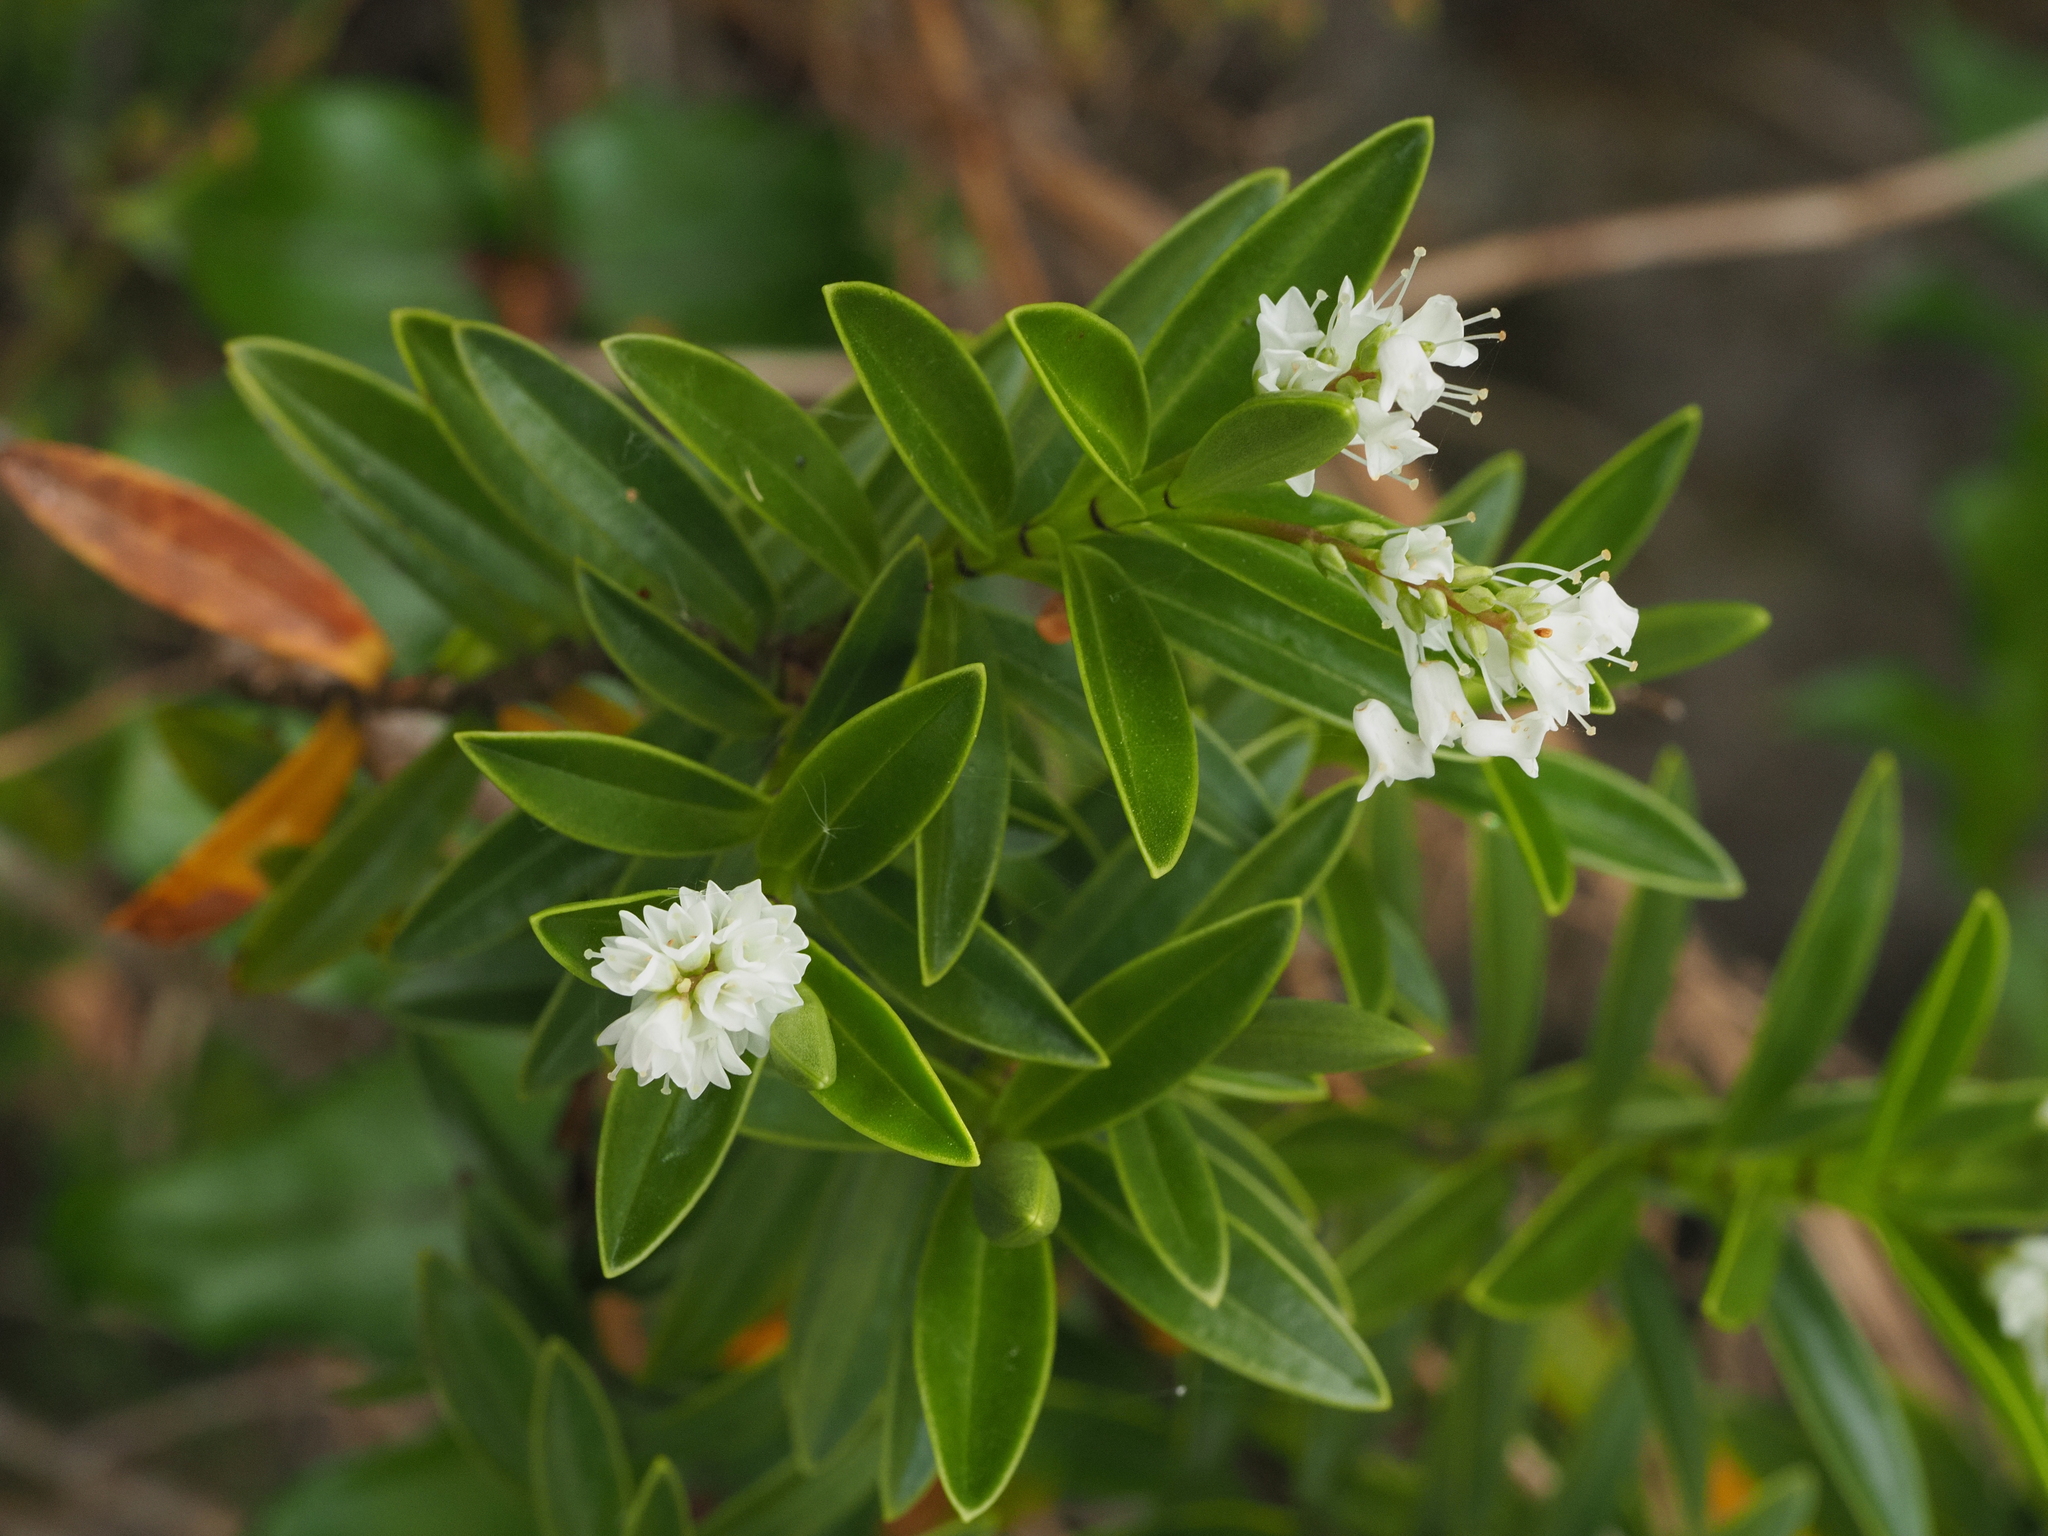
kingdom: Plantae
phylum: Tracheophyta
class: Magnoliopsida
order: Lamiales
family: Plantaginaceae
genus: Veronica
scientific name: Veronica subalpina
